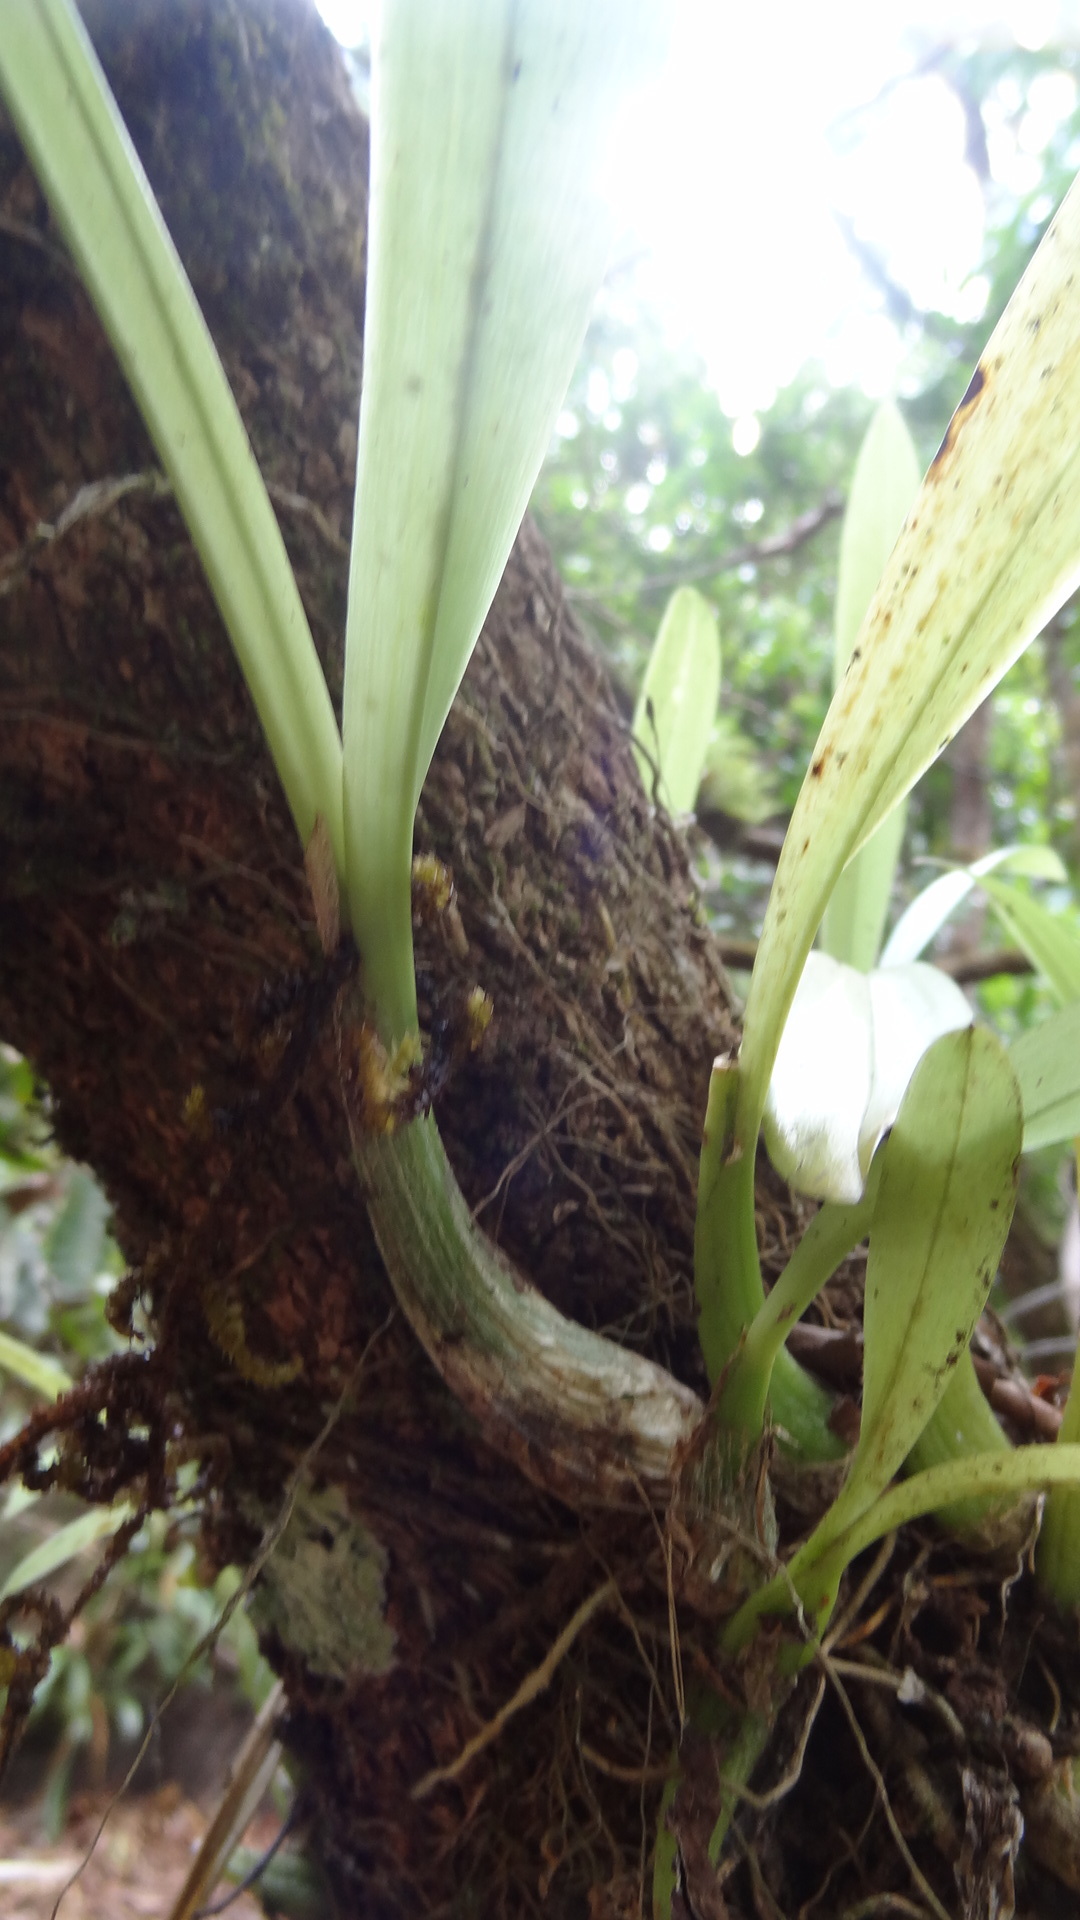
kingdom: Plantae
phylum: Tracheophyta
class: Liliopsida
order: Asparagales
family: Orchidaceae
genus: Liparis
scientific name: Liparis viridiflora
